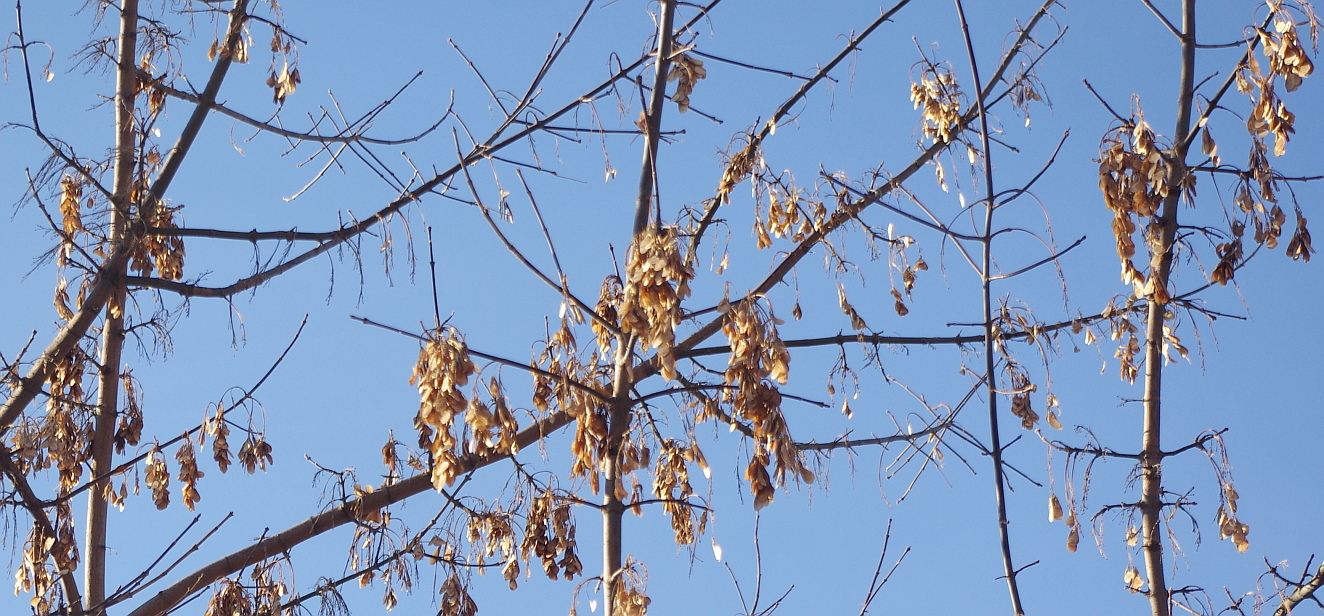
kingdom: Plantae
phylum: Tracheophyta
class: Magnoliopsida
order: Sapindales
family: Sapindaceae
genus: Acer
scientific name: Acer negundo
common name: Ashleaf maple
